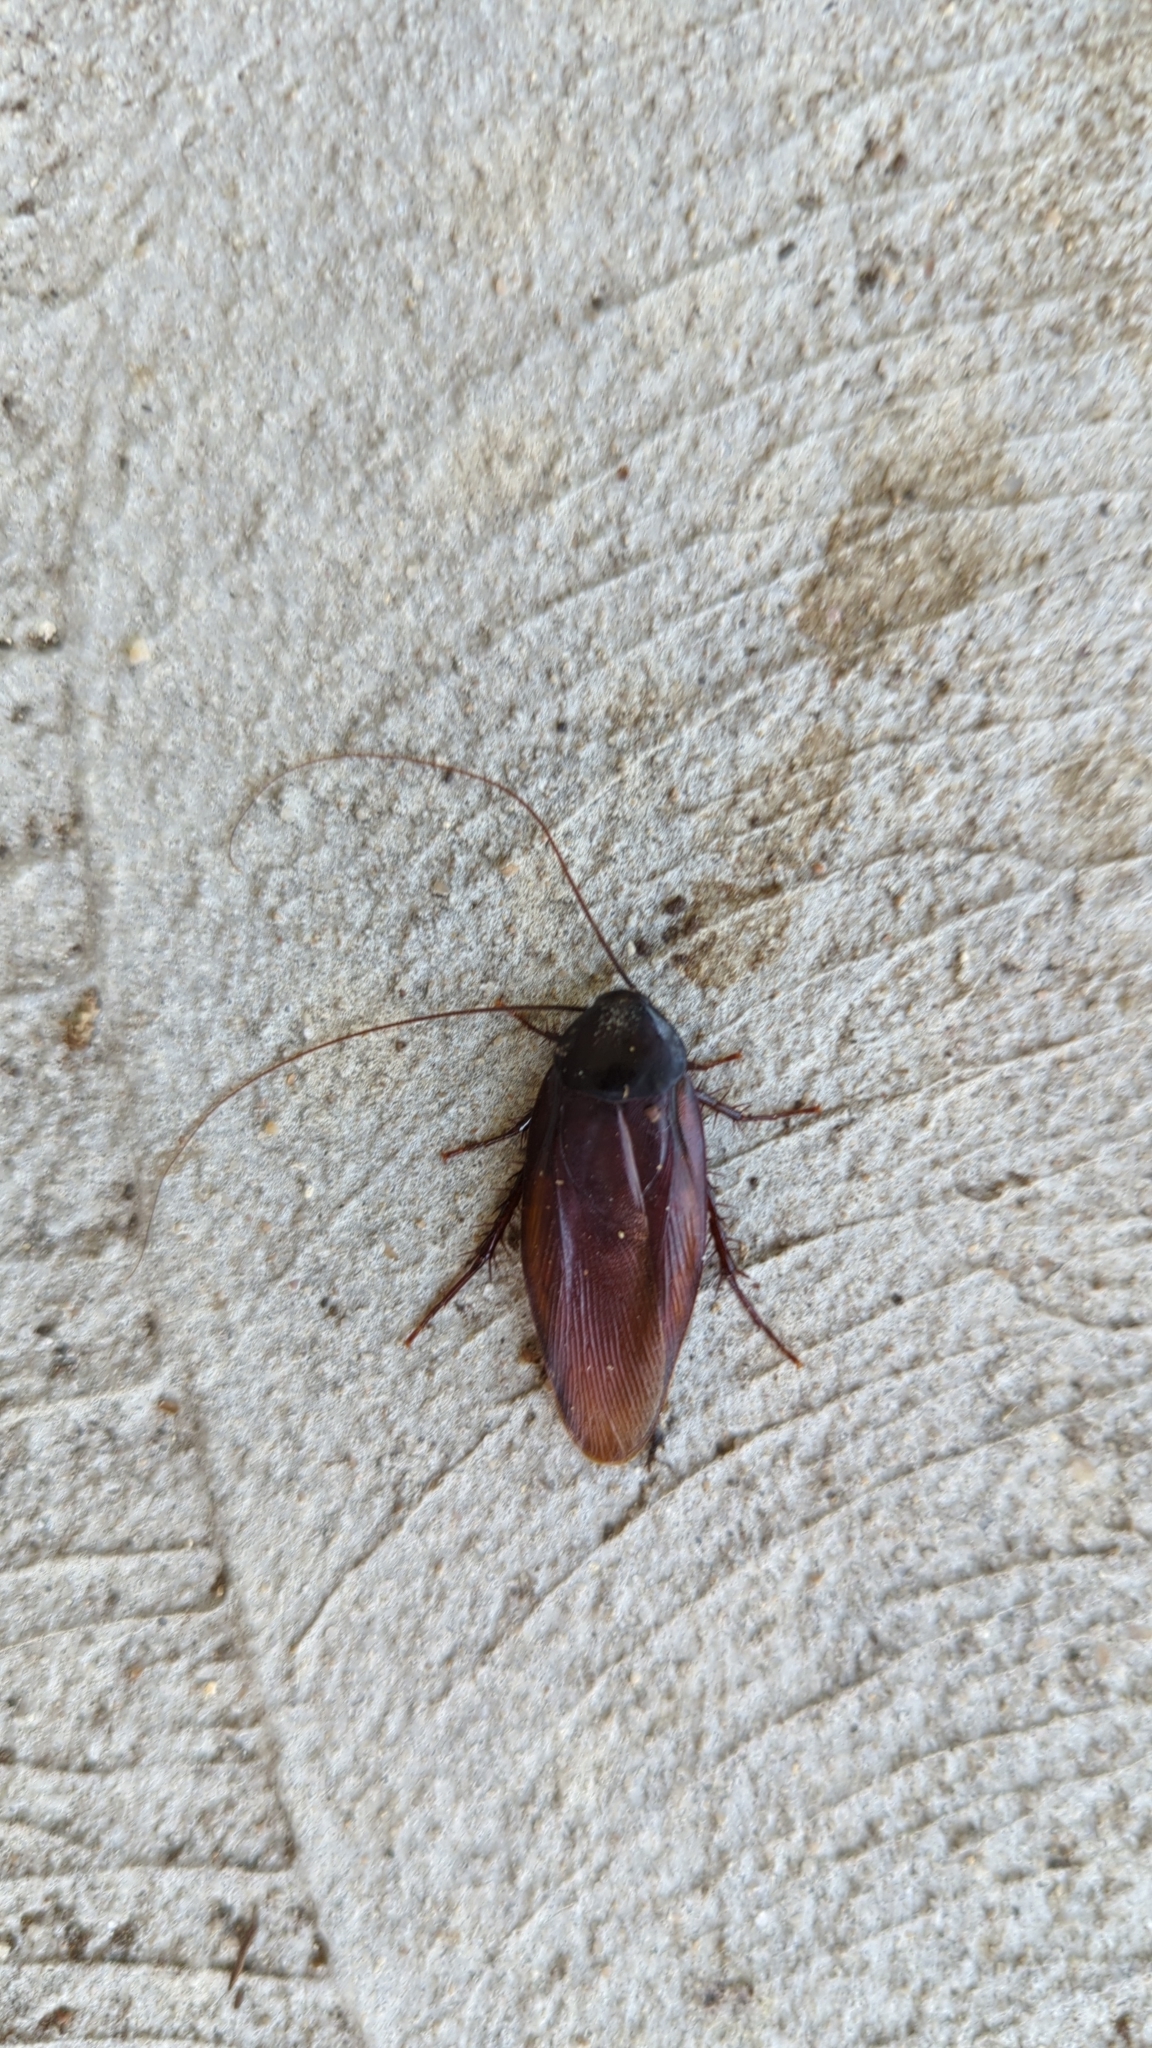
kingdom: Animalia
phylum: Arthropoda
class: Insecta
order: Blattodea
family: Blattidae
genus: Periplaneta
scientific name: Periplaneta fuliginosa
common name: Smokeybrown cockroad
